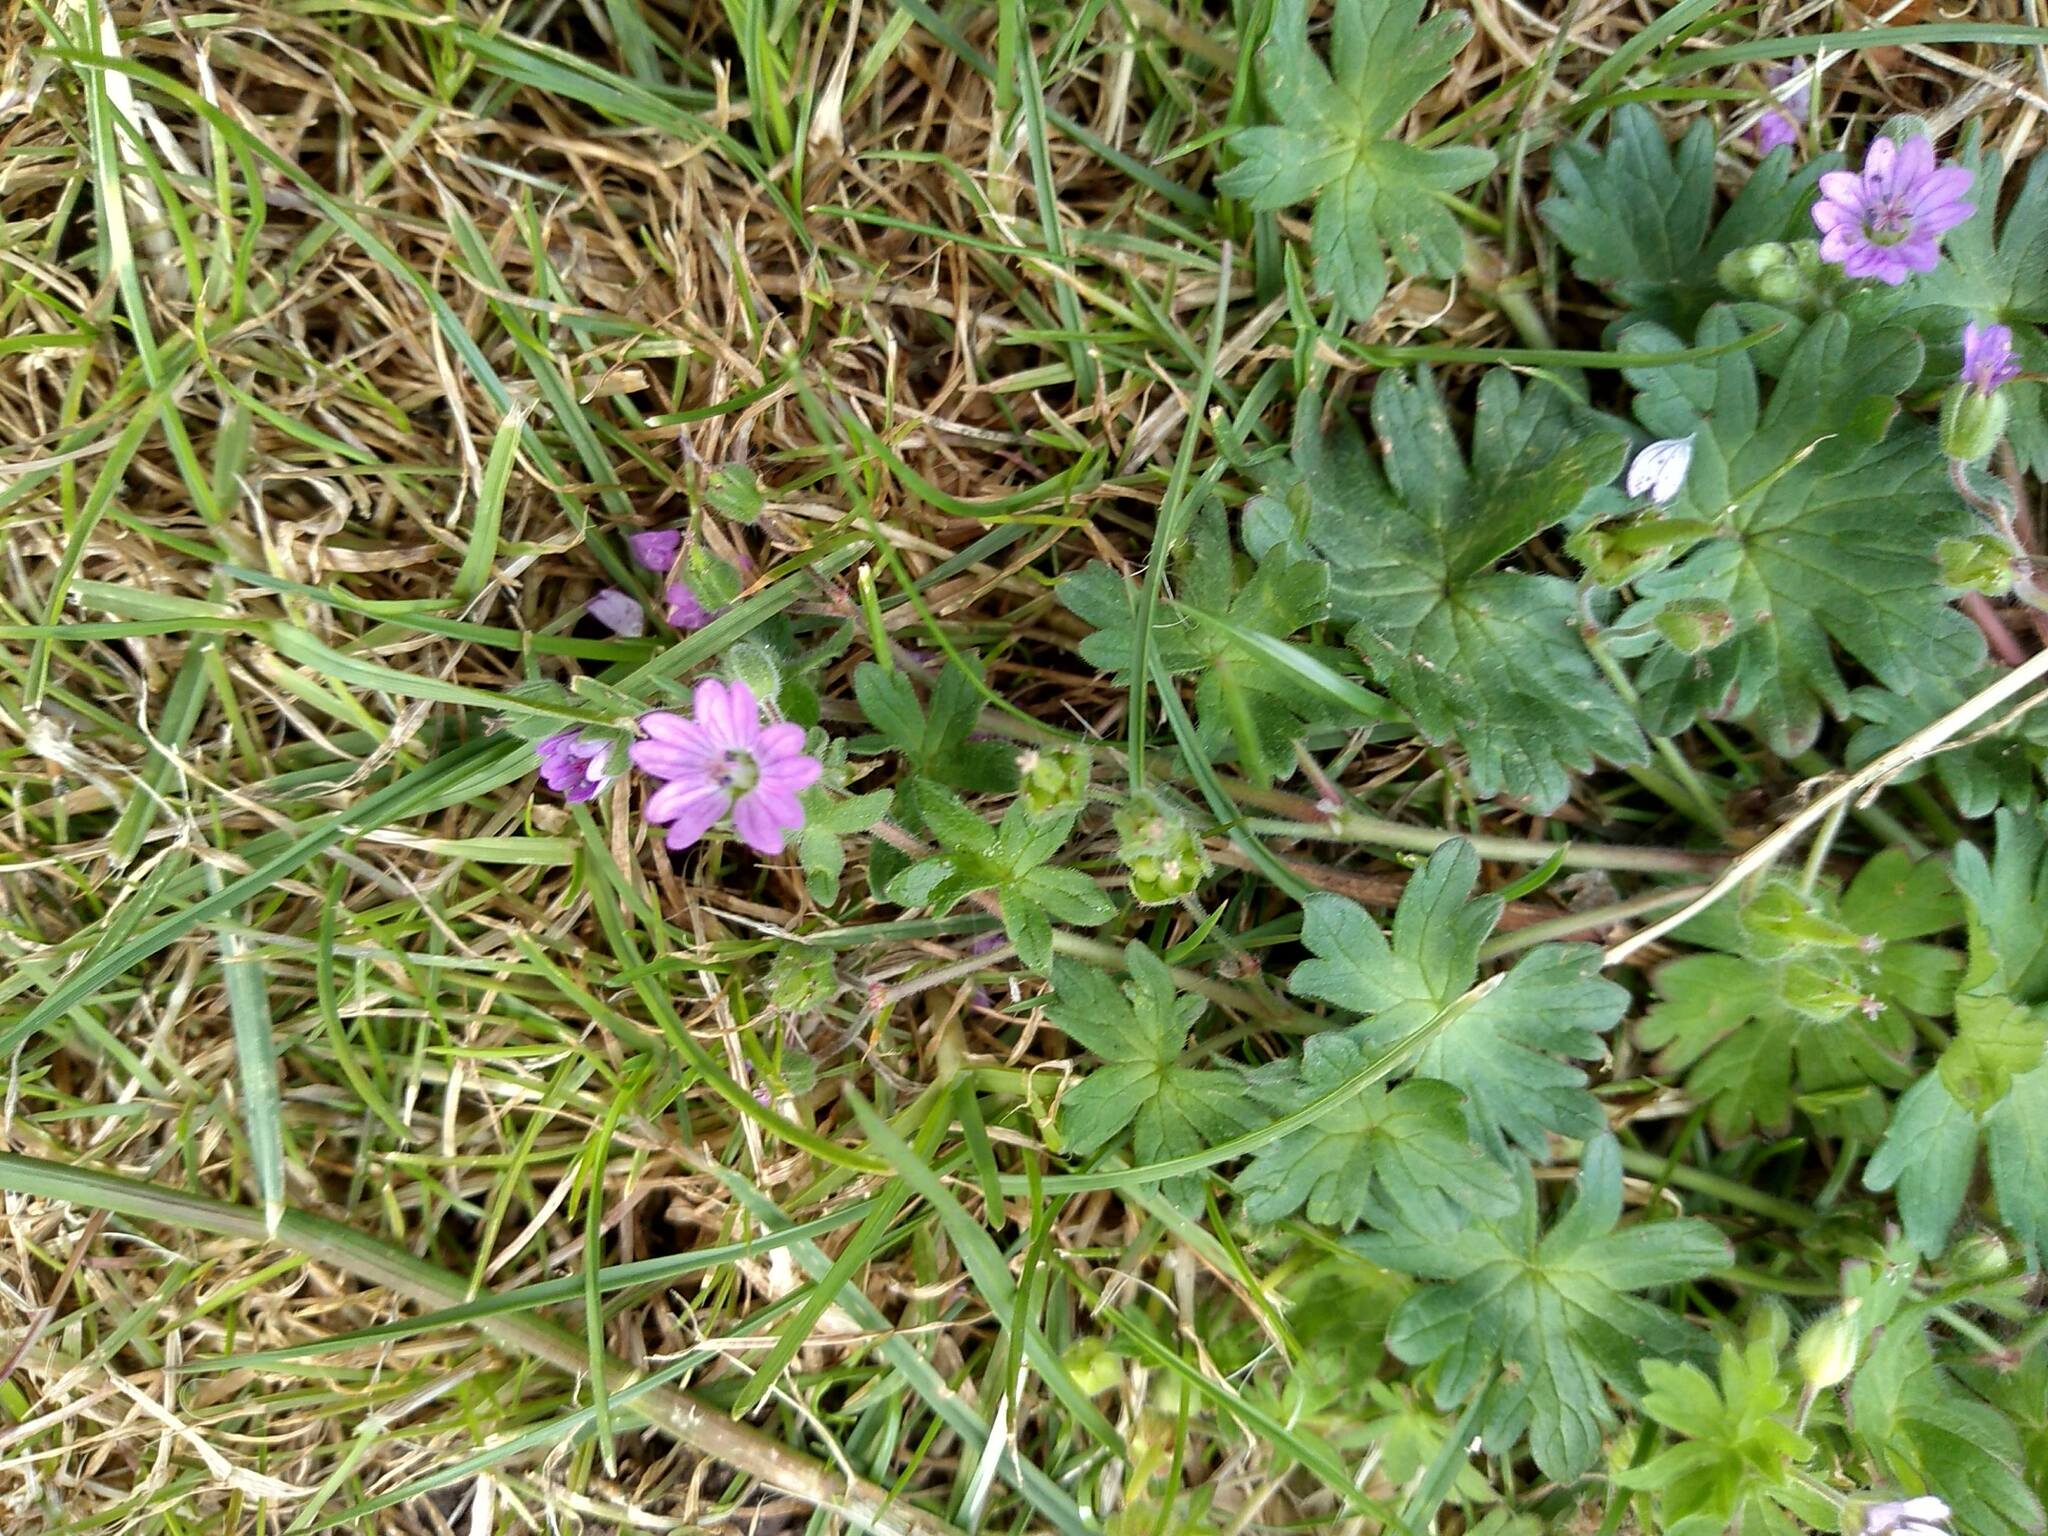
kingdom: Plantae
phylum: Tracheophyta
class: Magnoliopsida
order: Geraniales
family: Geraniaceae
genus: Geranium
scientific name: Geranium molle
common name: Dove's-foot crane's-bill
